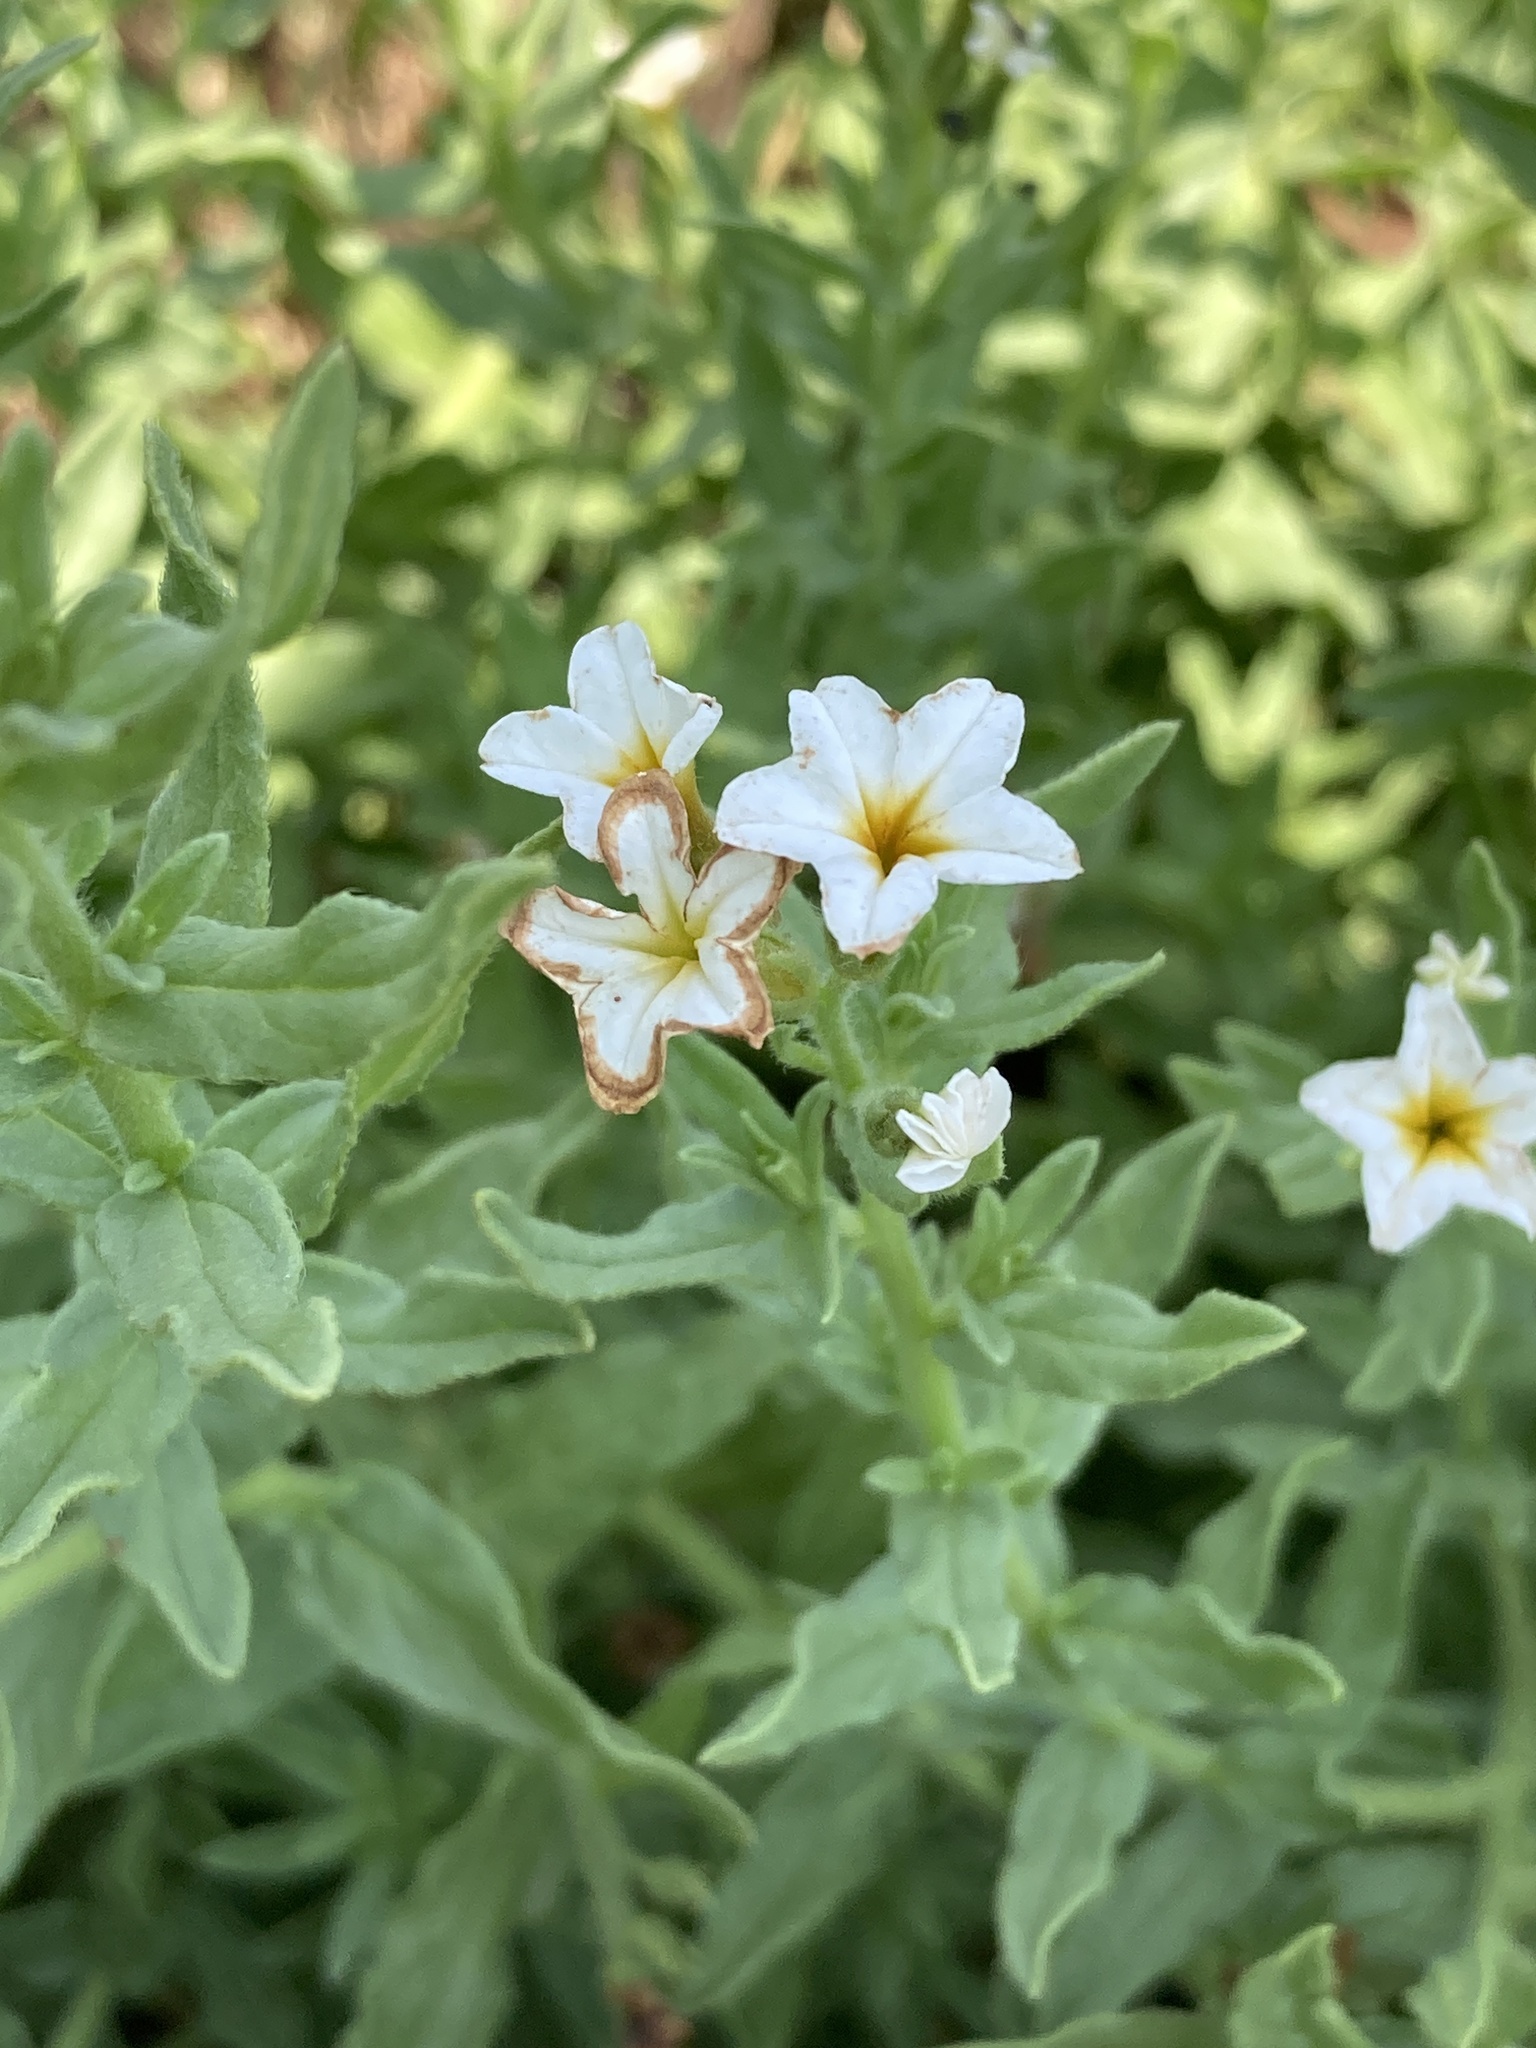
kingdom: Plantae
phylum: Tracheophyta
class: Magnoliopsida
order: Boraginales
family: Heliotropiaceae
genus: Tournefortia
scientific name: Tournefortia sibirica
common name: Siberian sea rosemary
